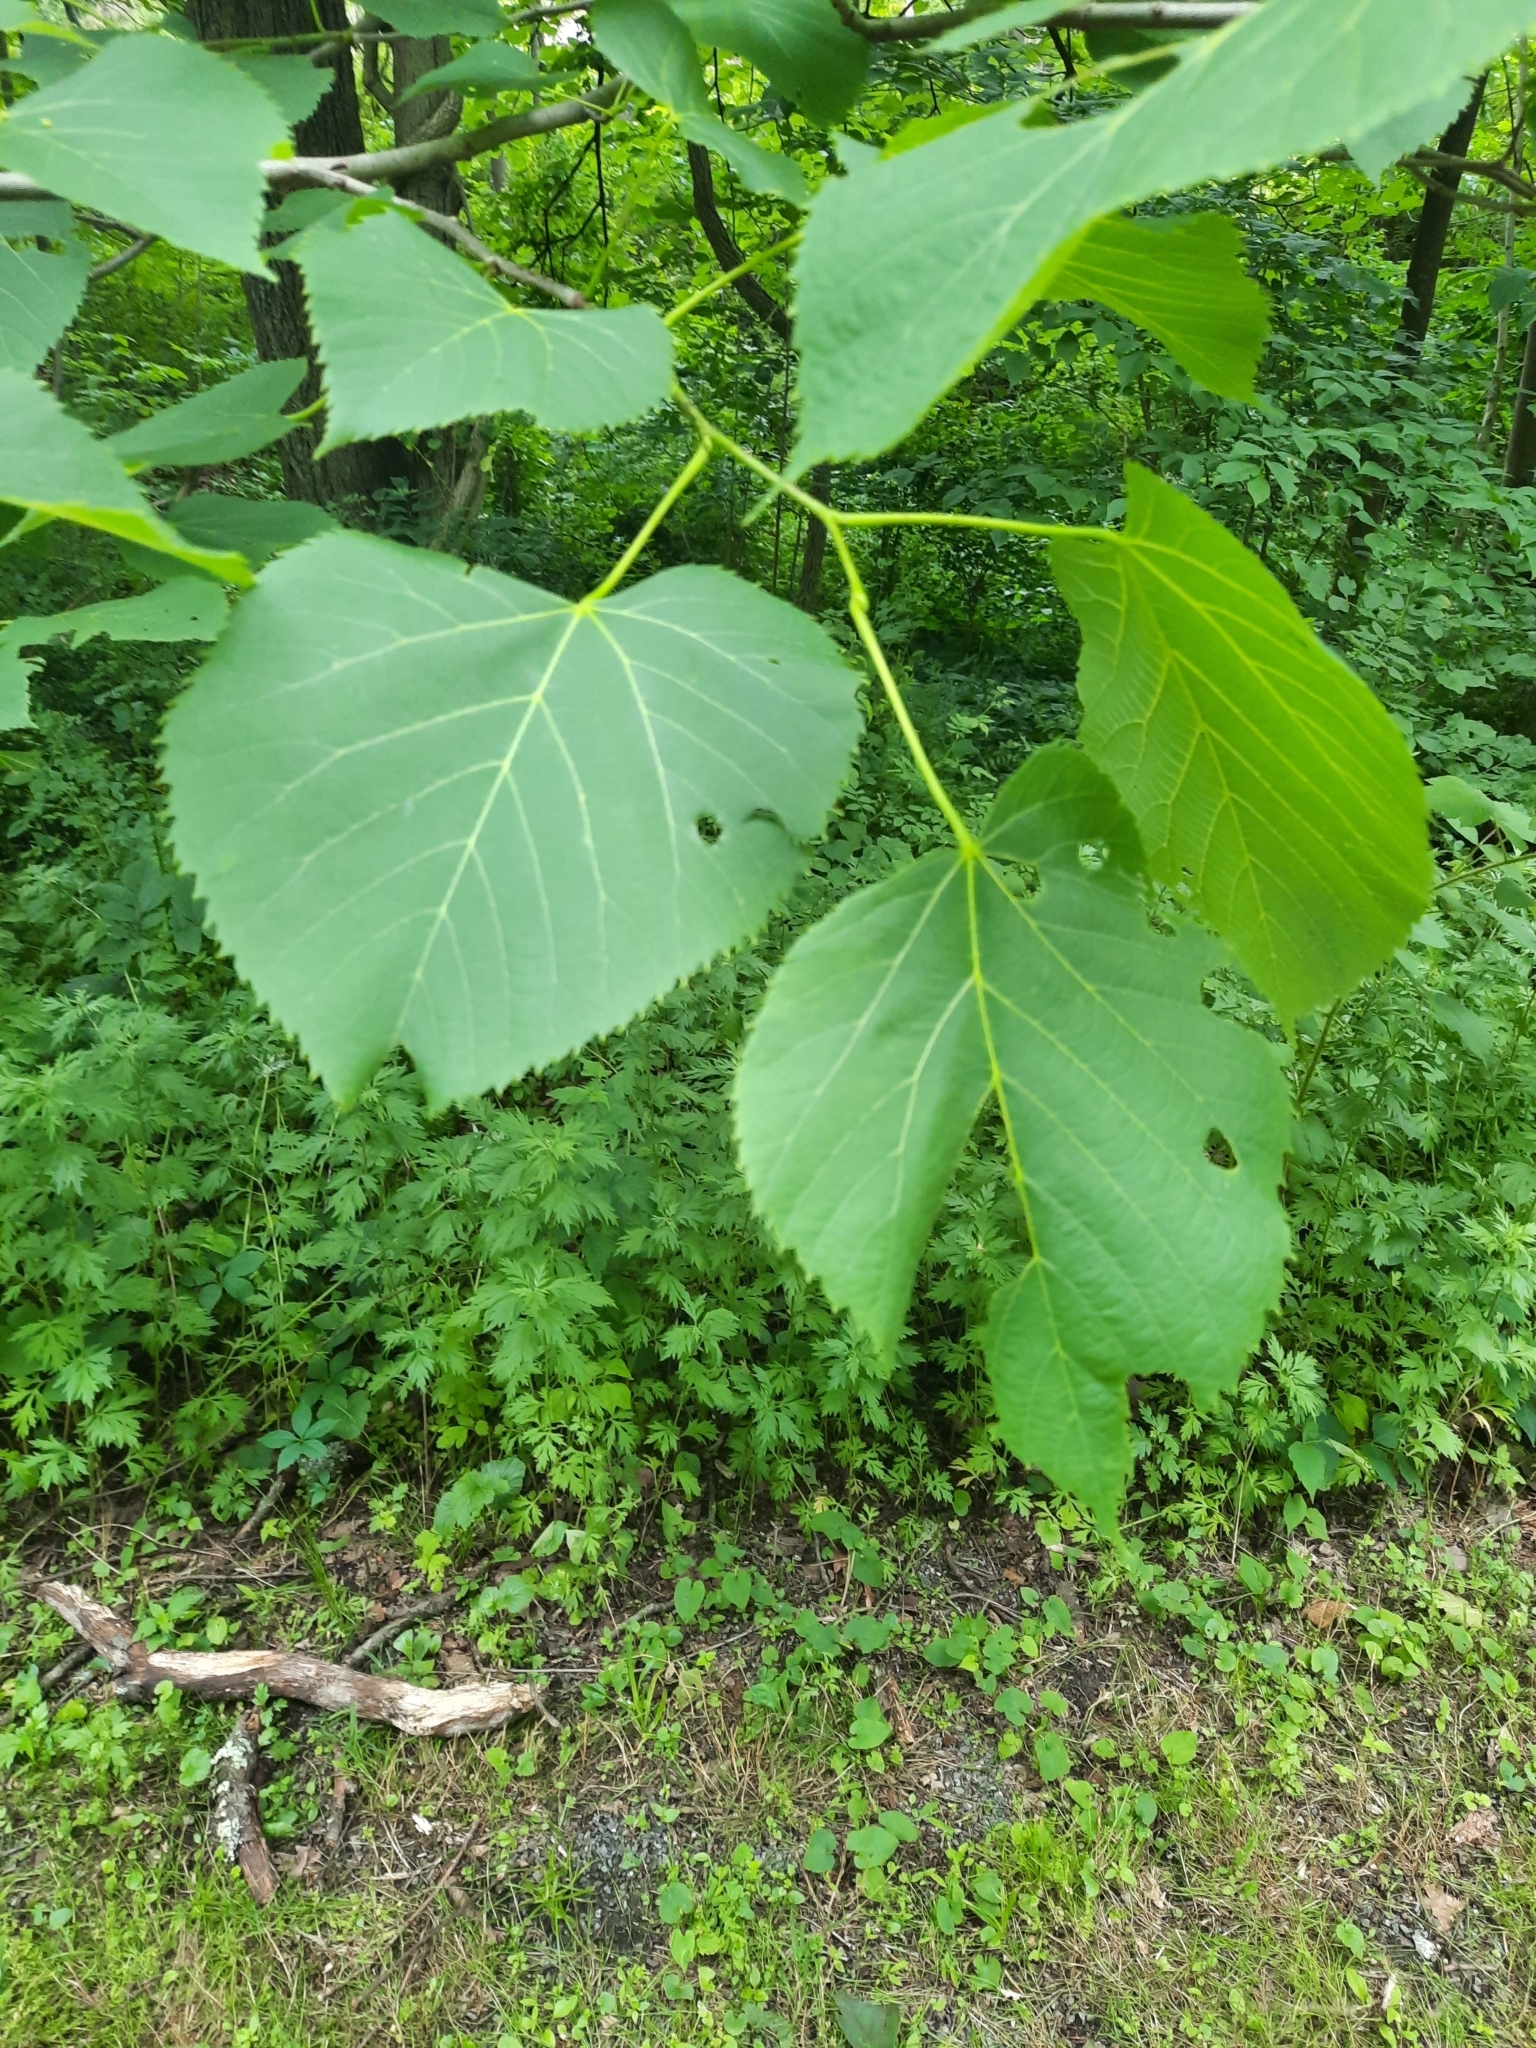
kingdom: Plantae
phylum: Tracheophyta
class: Magnoliopsida
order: Malvales
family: Malvaceae
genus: Tilia
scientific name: Tilia americana
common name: Basswood
